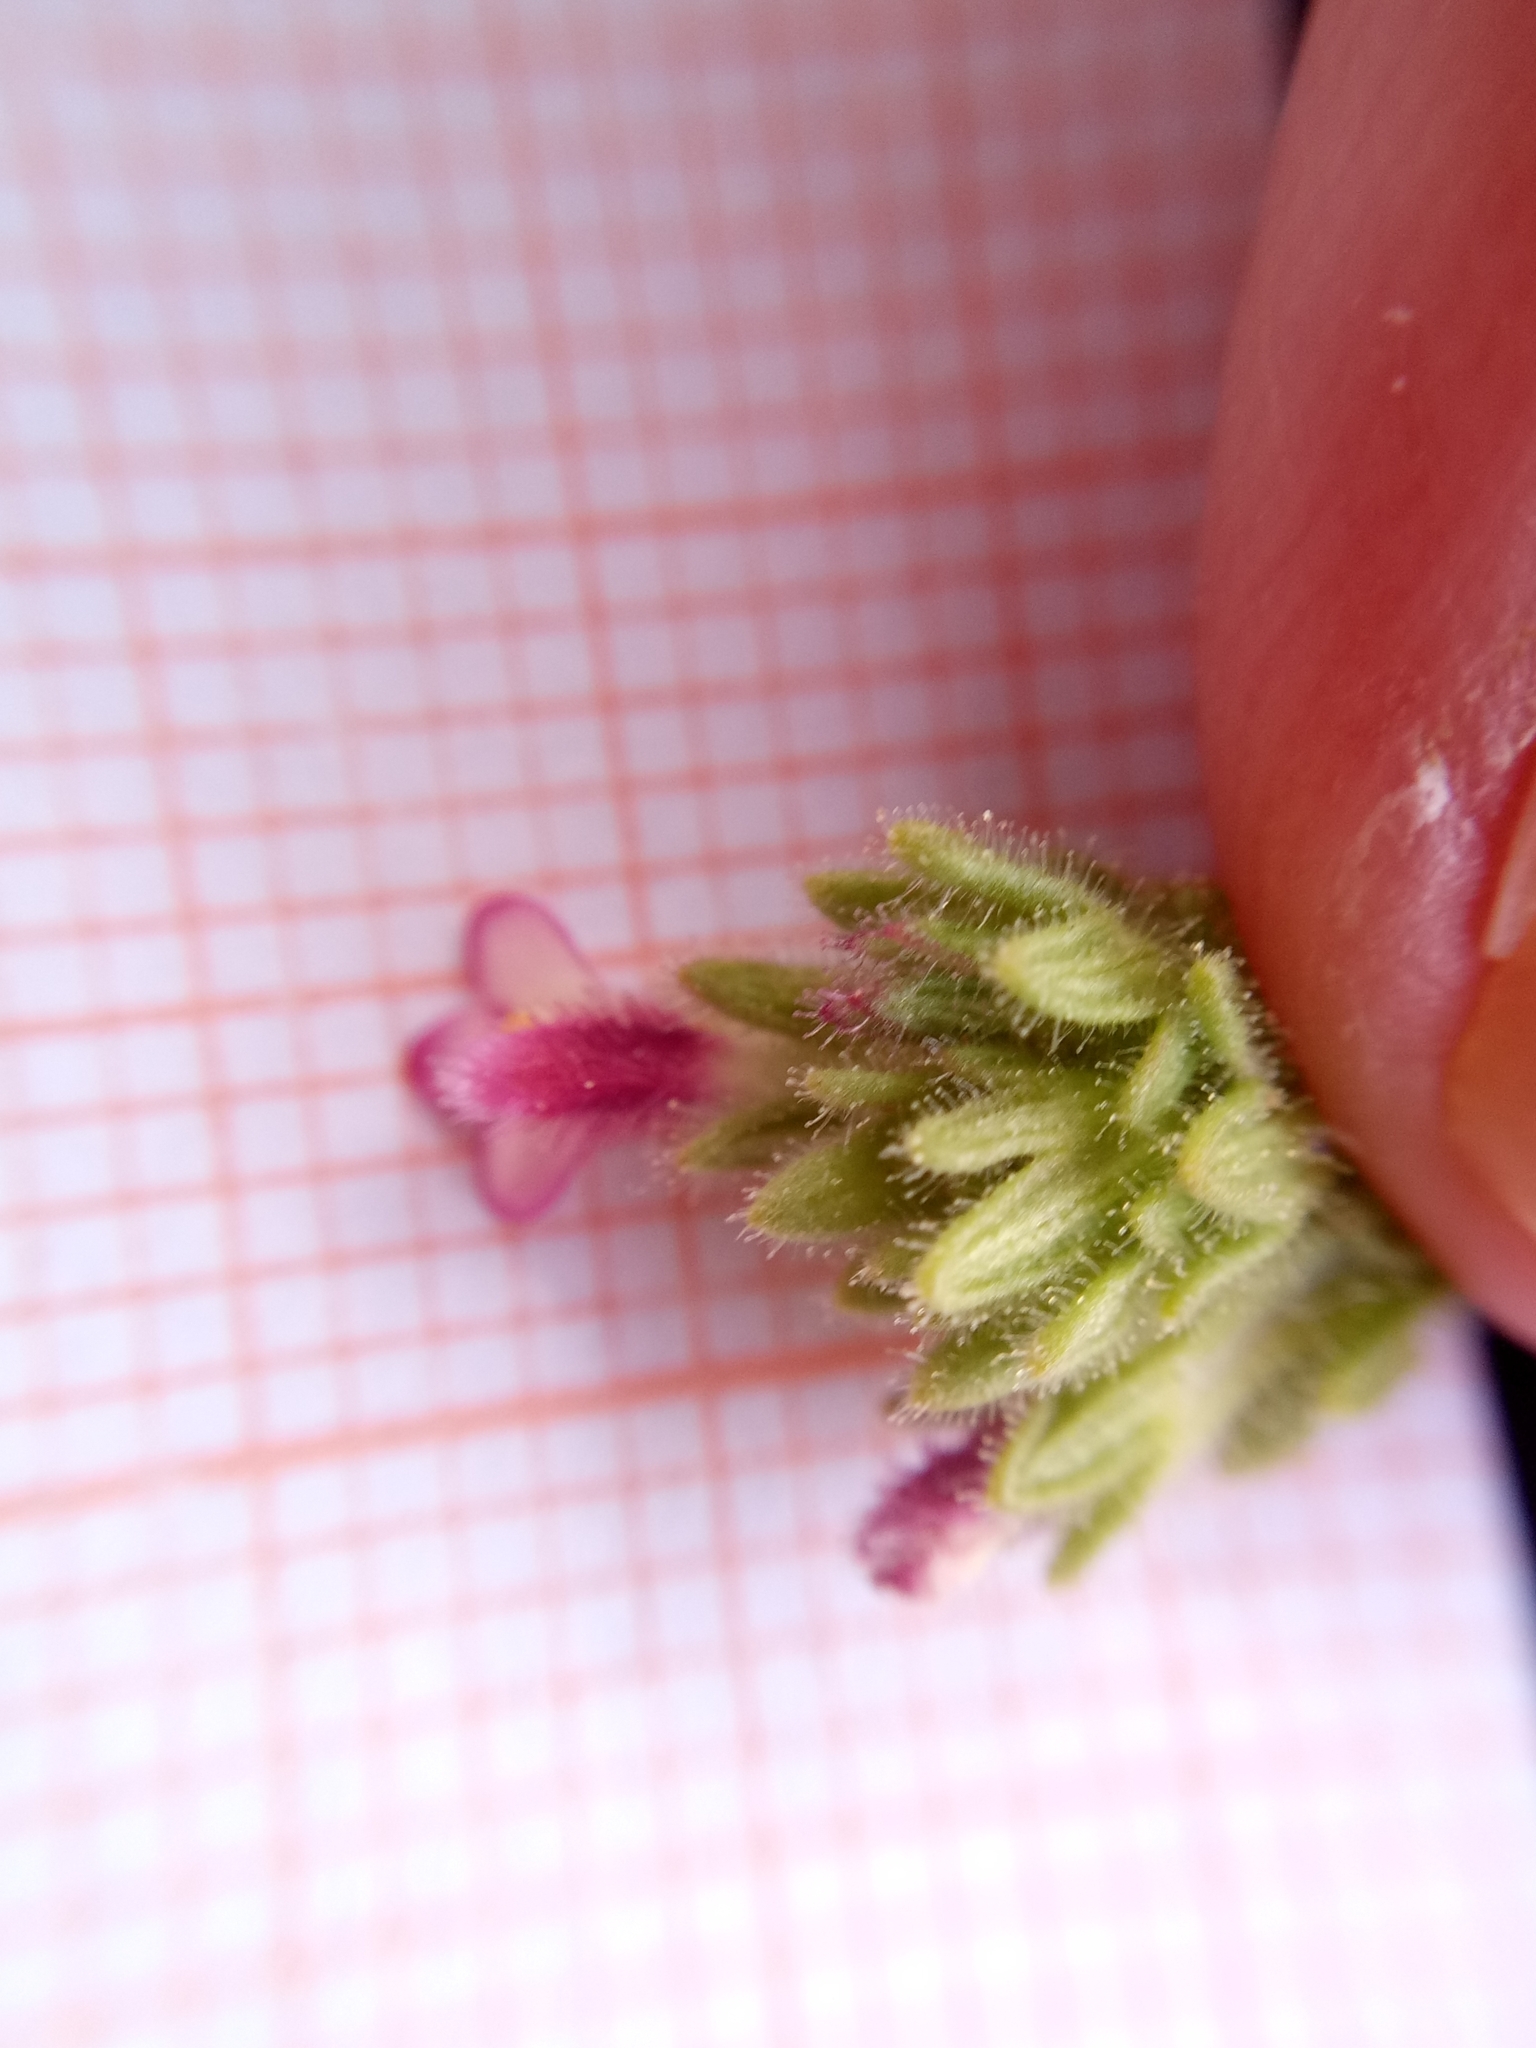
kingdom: Plantae
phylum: Tracheophyta
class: Magnoliopsida
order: Lamiales
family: Orobanchaceae
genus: Parentucellia
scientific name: Parentucellia latifolia
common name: Broadleaf glandweed
